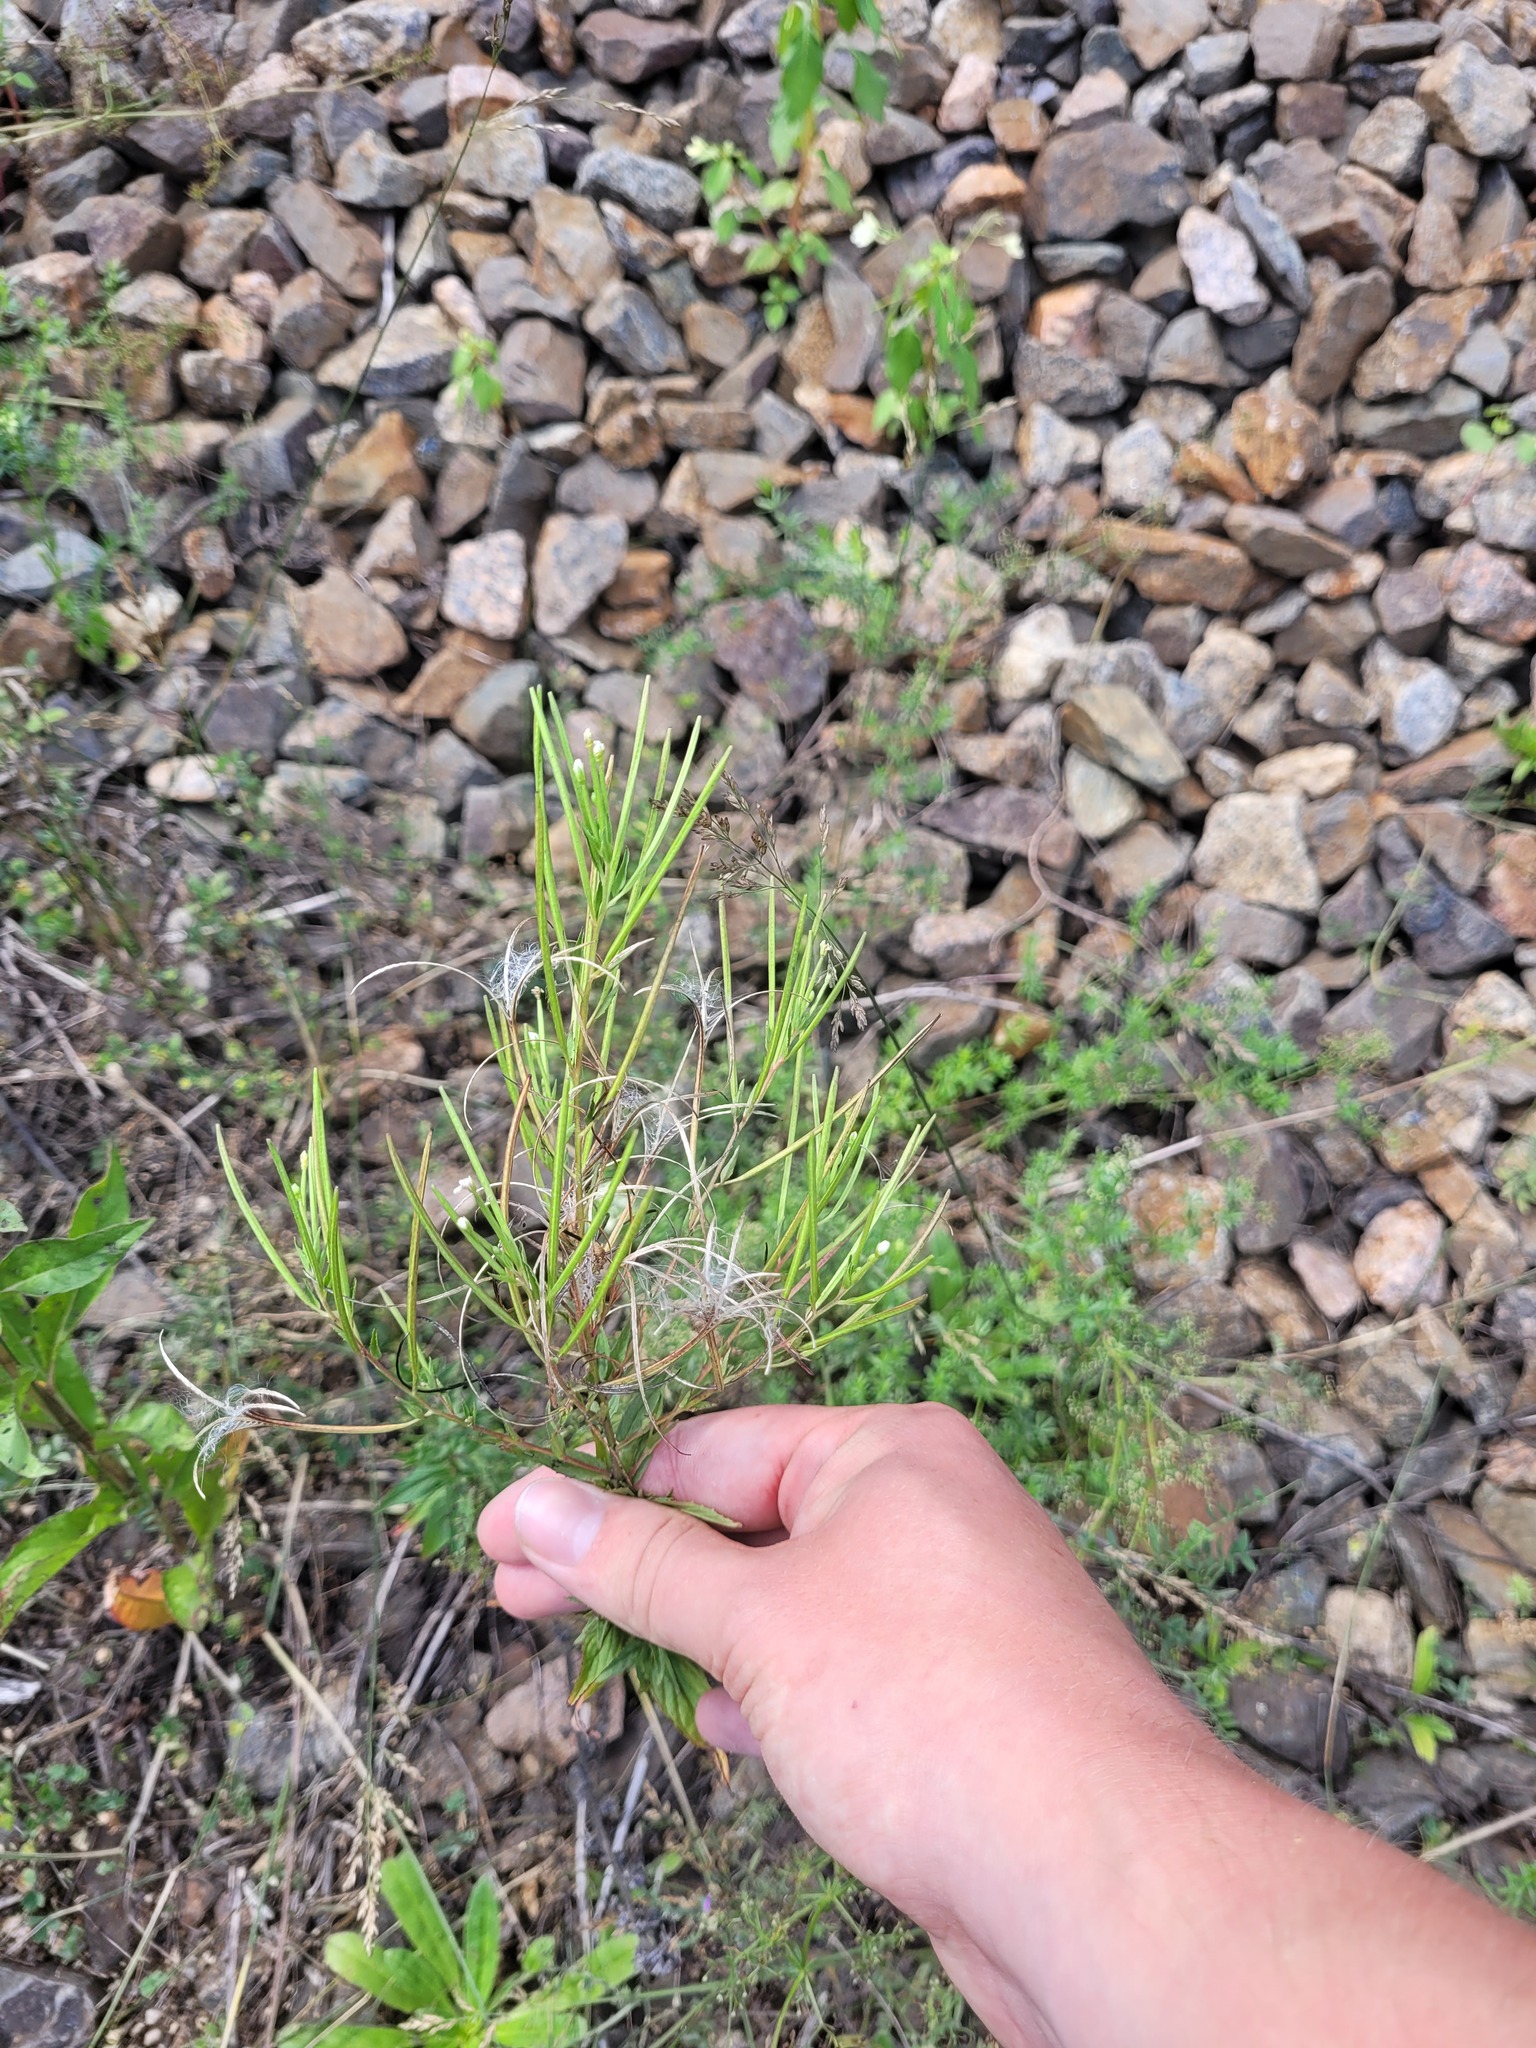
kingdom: Plantae
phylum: Tracheophyta
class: Magnoliopsida
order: Myrtales
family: Onagraceae
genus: Epilobium
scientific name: Epilobium pseudorubescens
